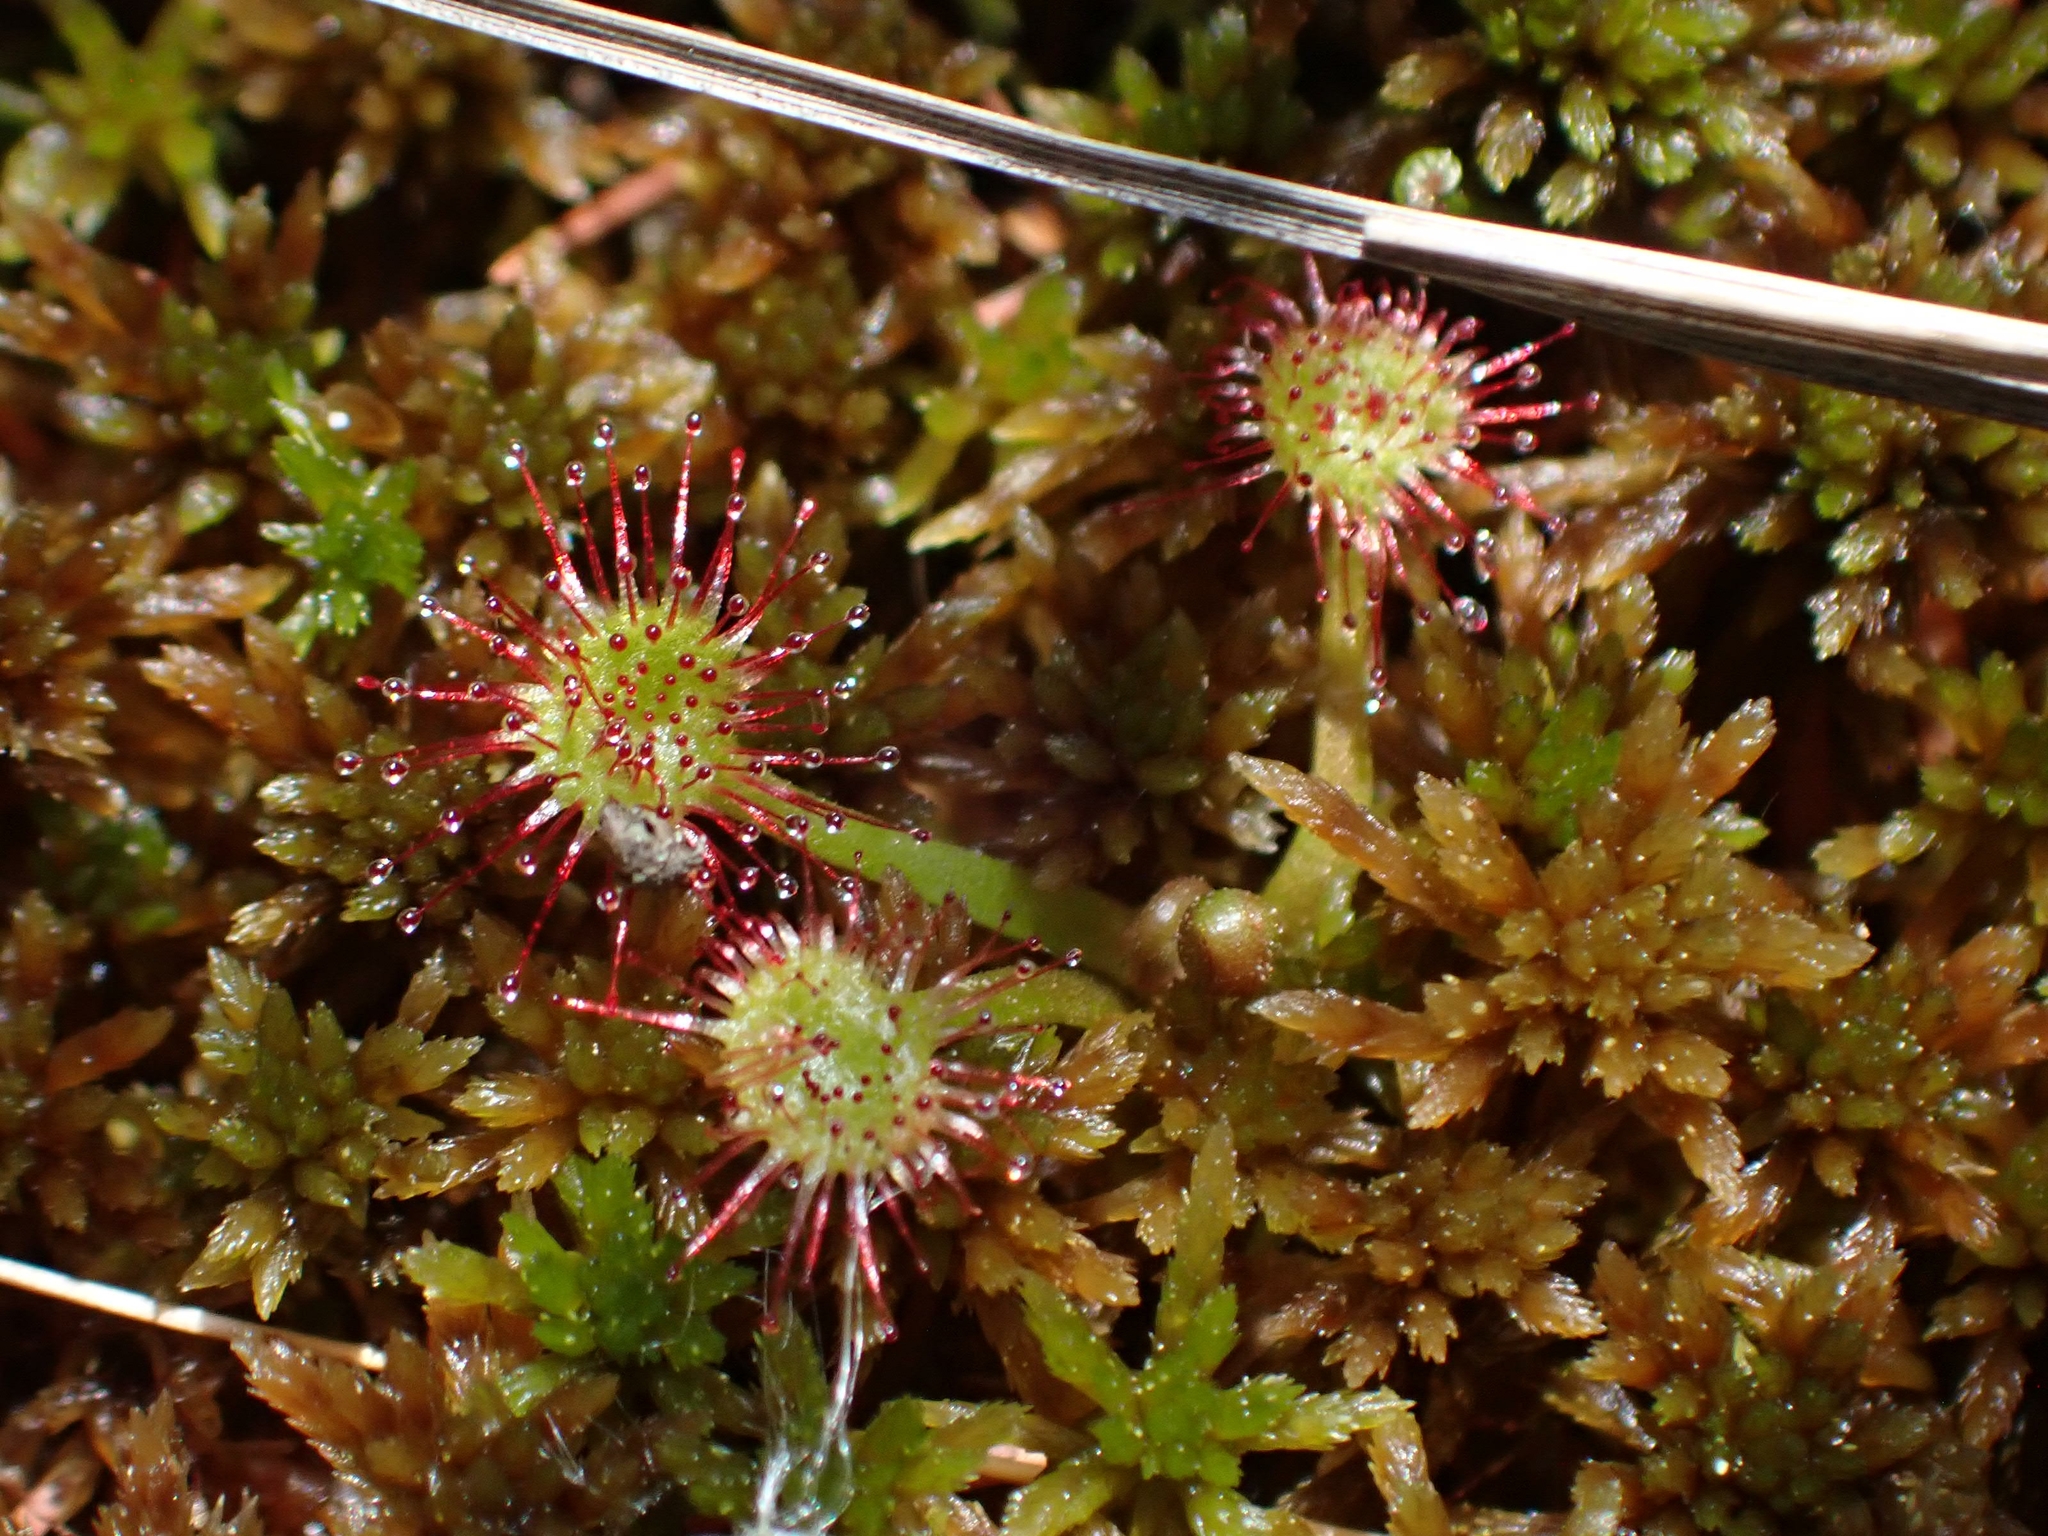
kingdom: Plantae
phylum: Tracheophyta
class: Magnoliopsida
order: Caryophyllales
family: Droseraceae
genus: Drosera
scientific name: Drosera rotundifolia
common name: Round-leaved sundew
